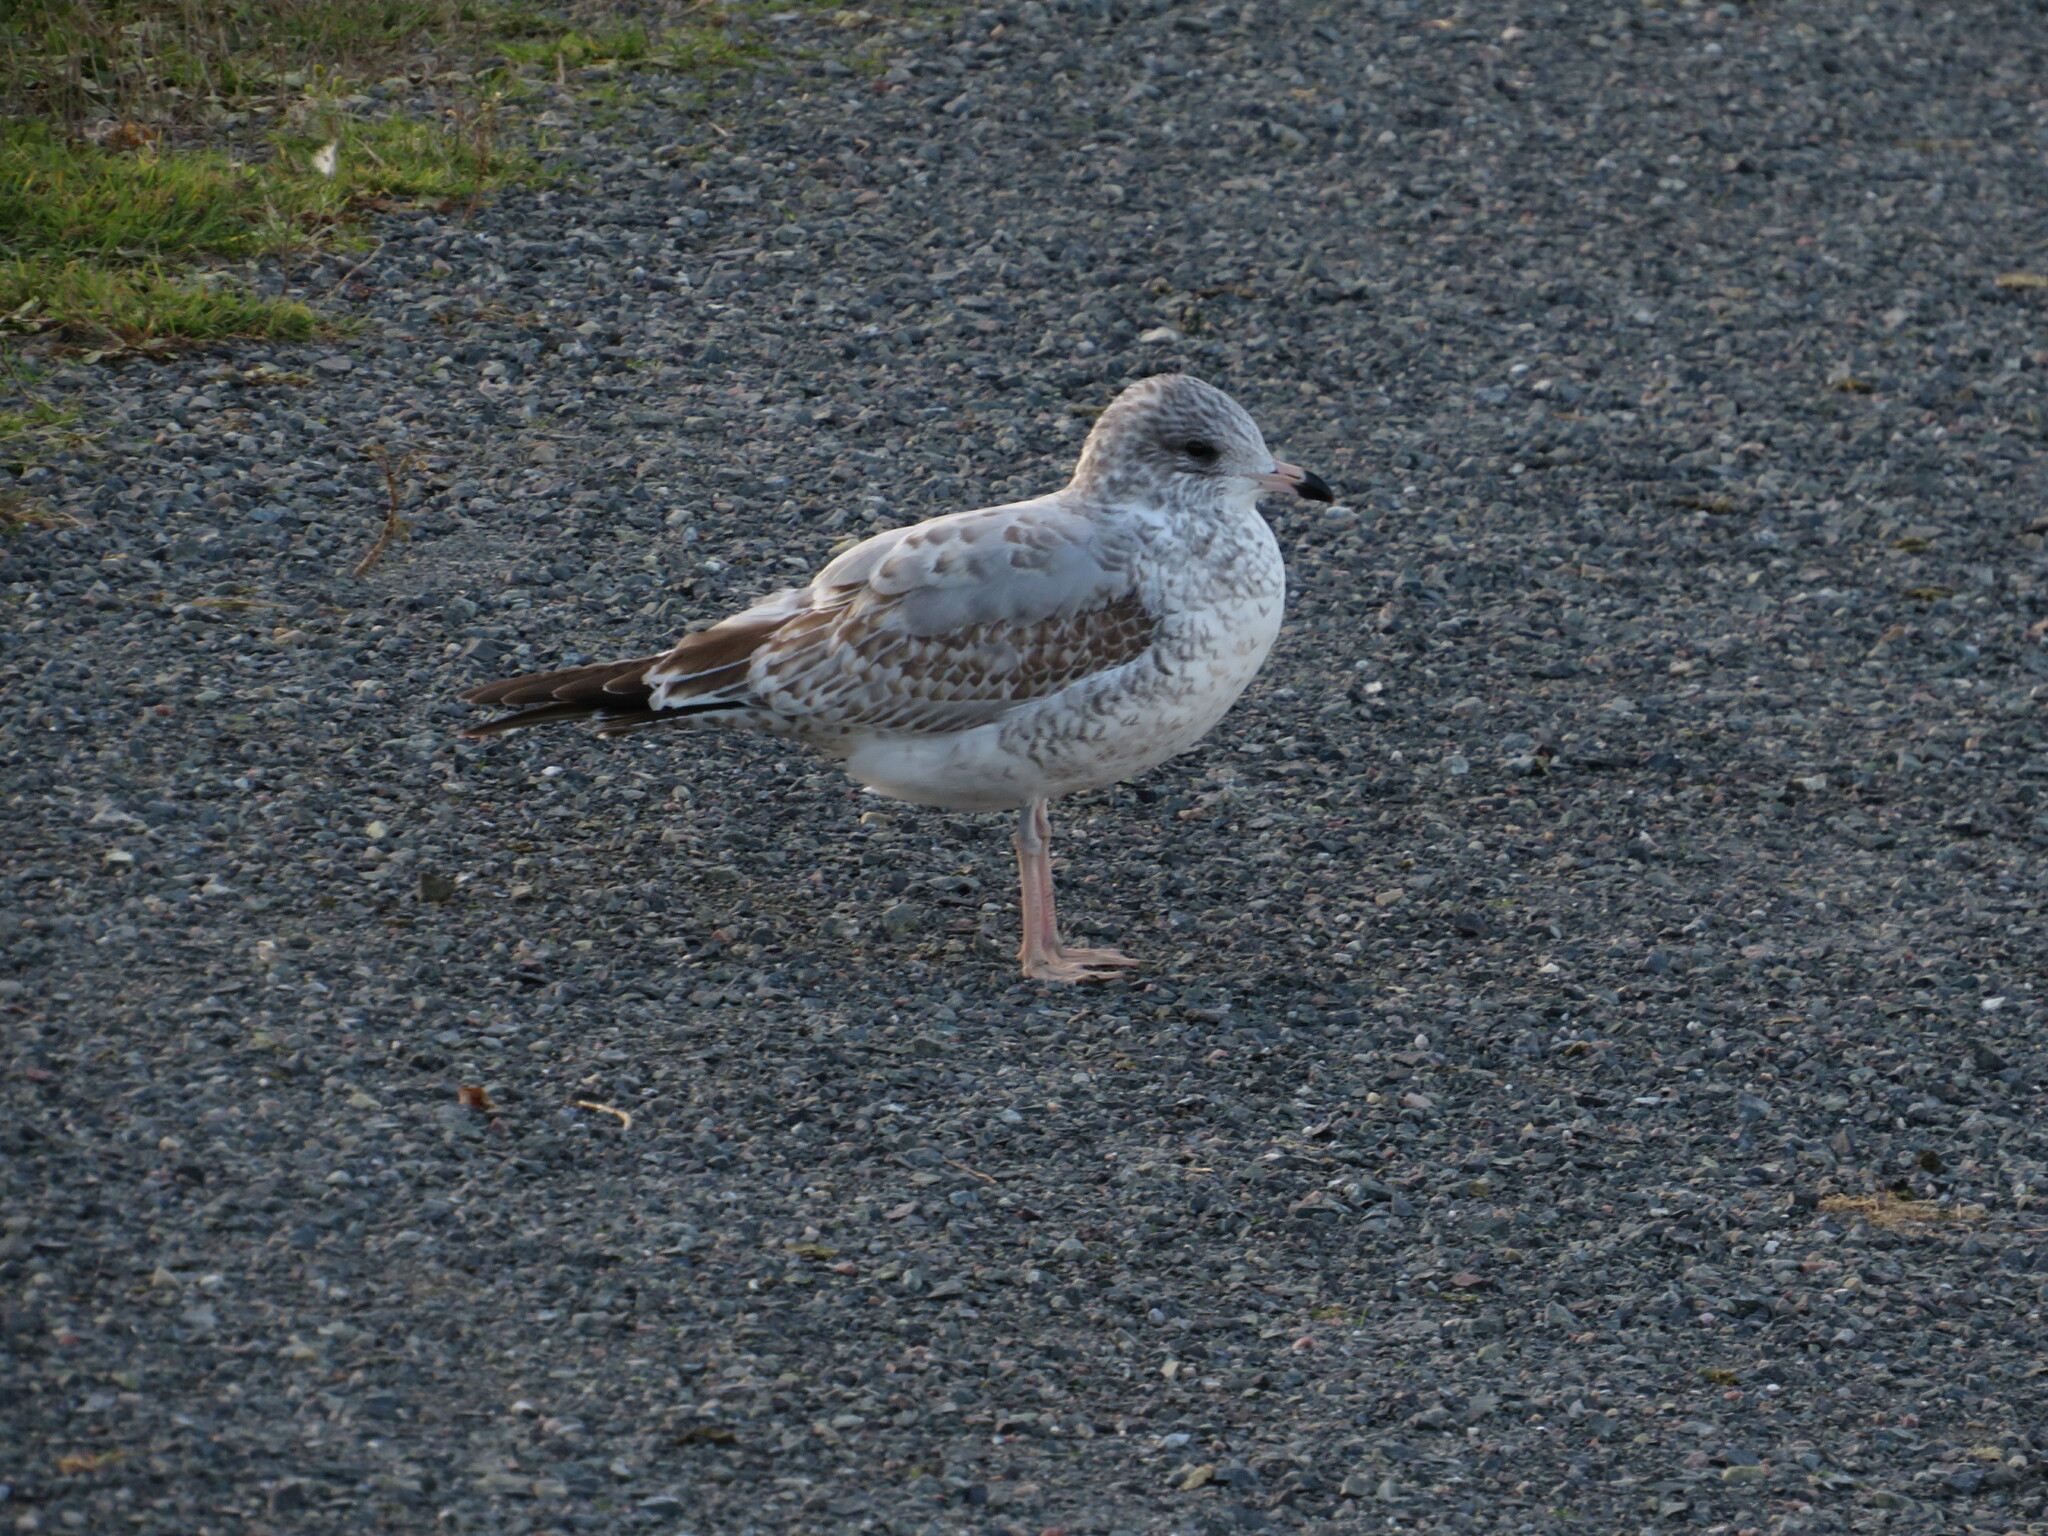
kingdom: Animalia
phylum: Chordata
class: Aves
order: Charadriiformes
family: Laridae
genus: Larus
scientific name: Larus delawarensis
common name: Ring-billed gull
